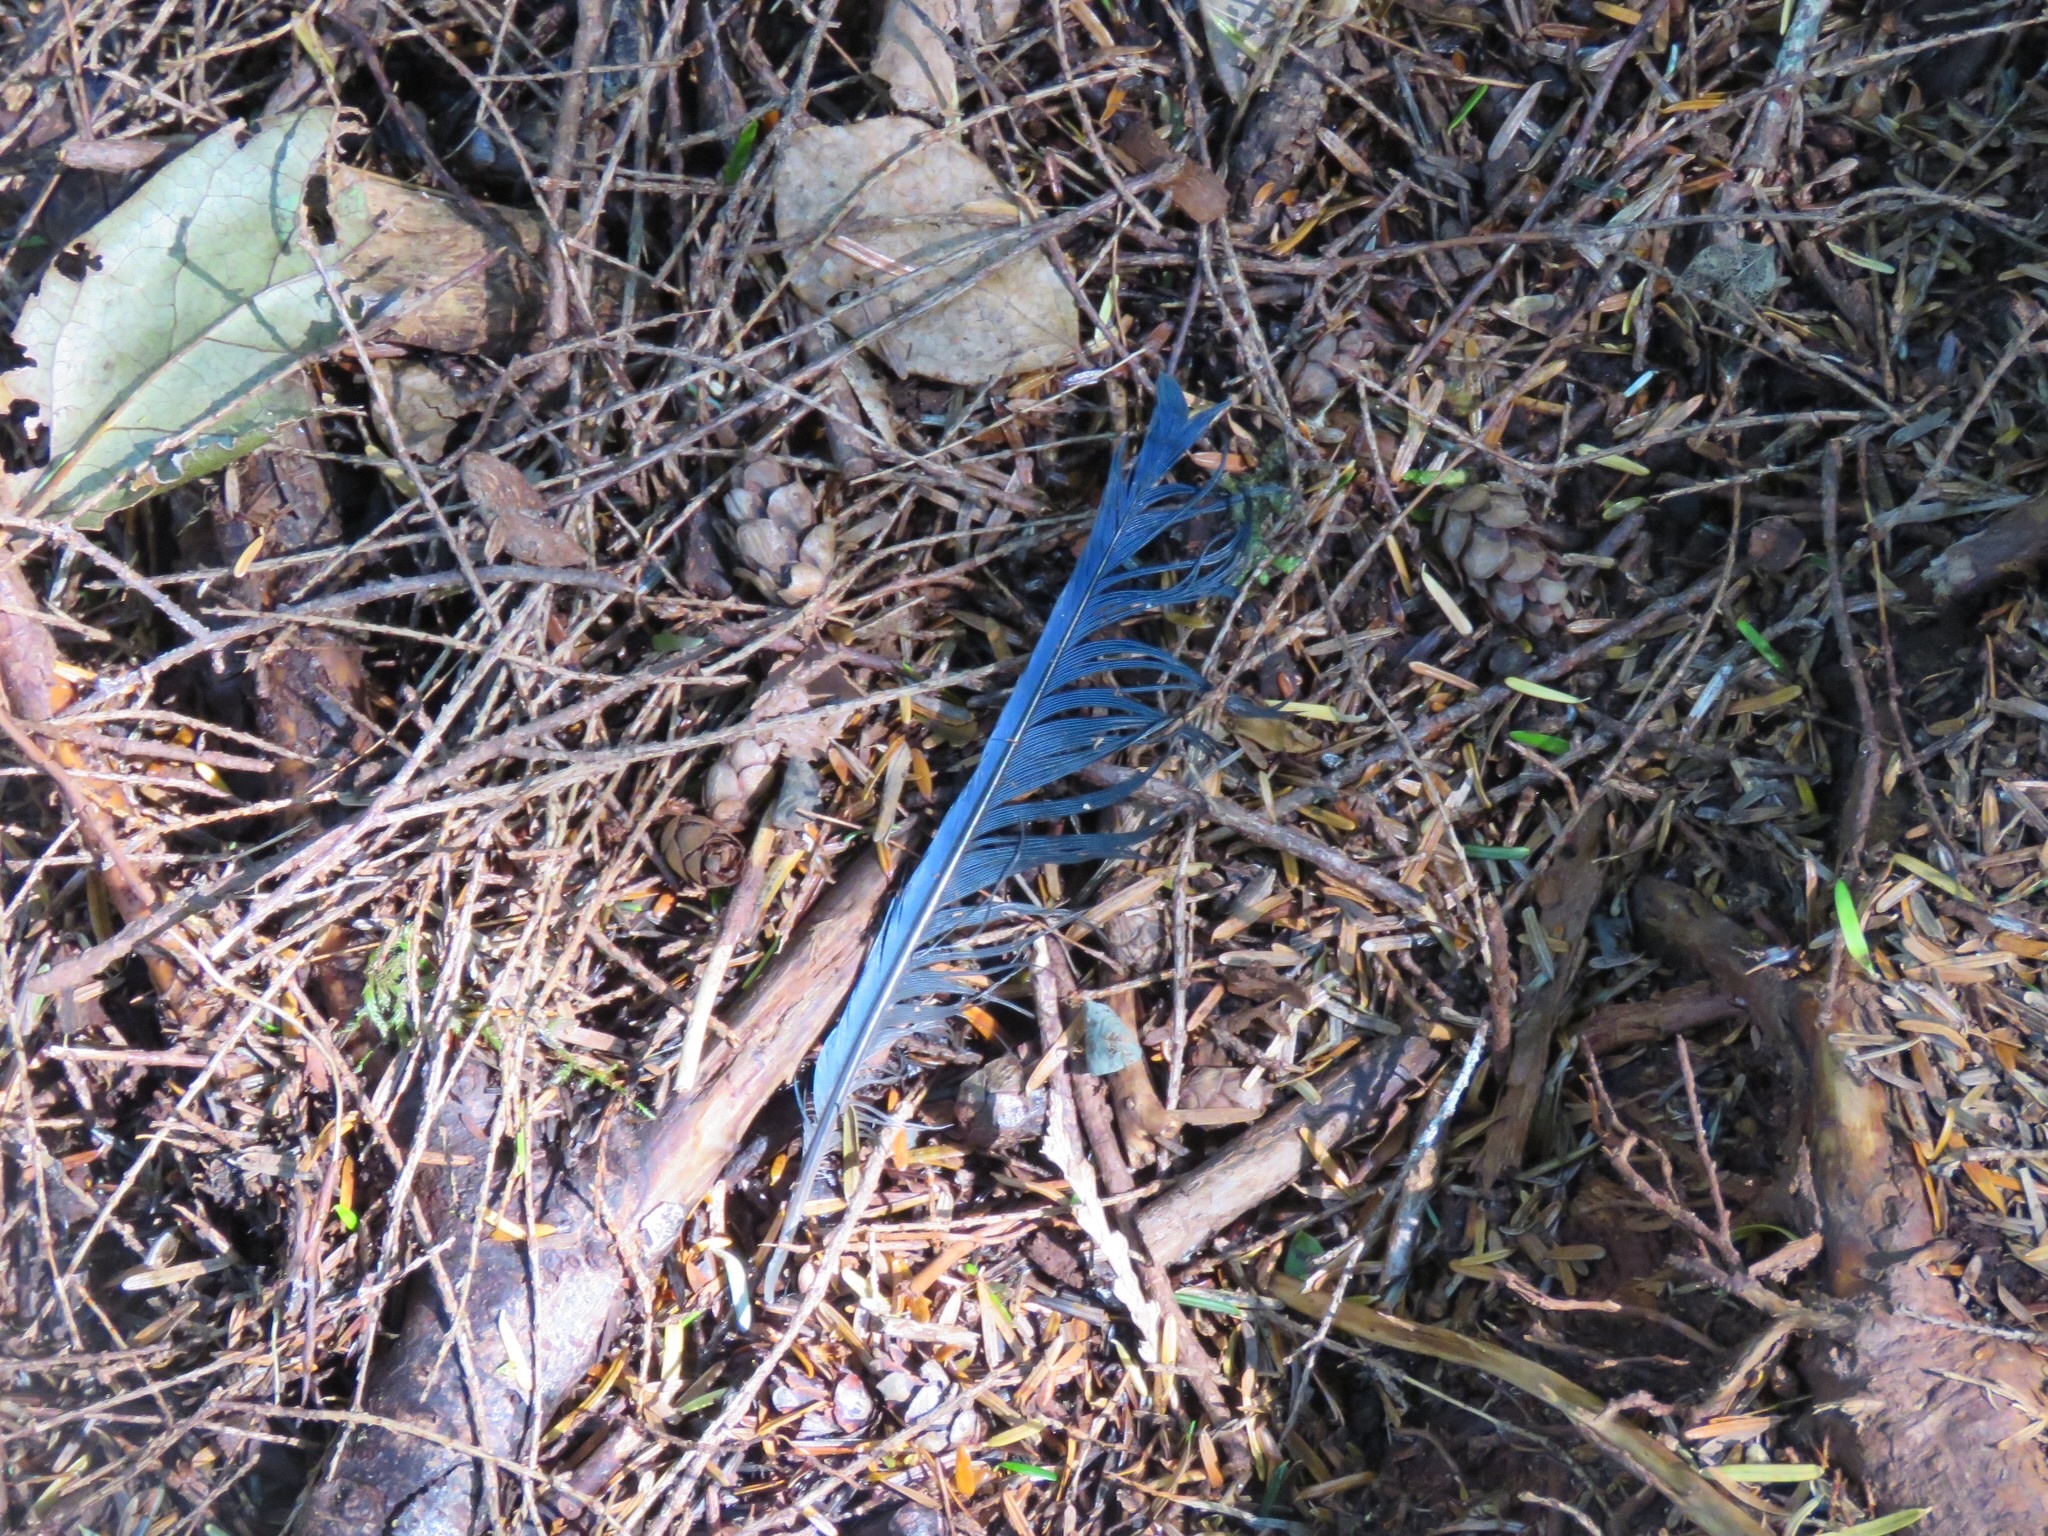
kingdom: Animalia
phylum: Chordata
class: Aves
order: Passeriformes
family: Corvidae
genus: Cyanocitta
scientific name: Cyanocitta stelleri
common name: Steller's jay
